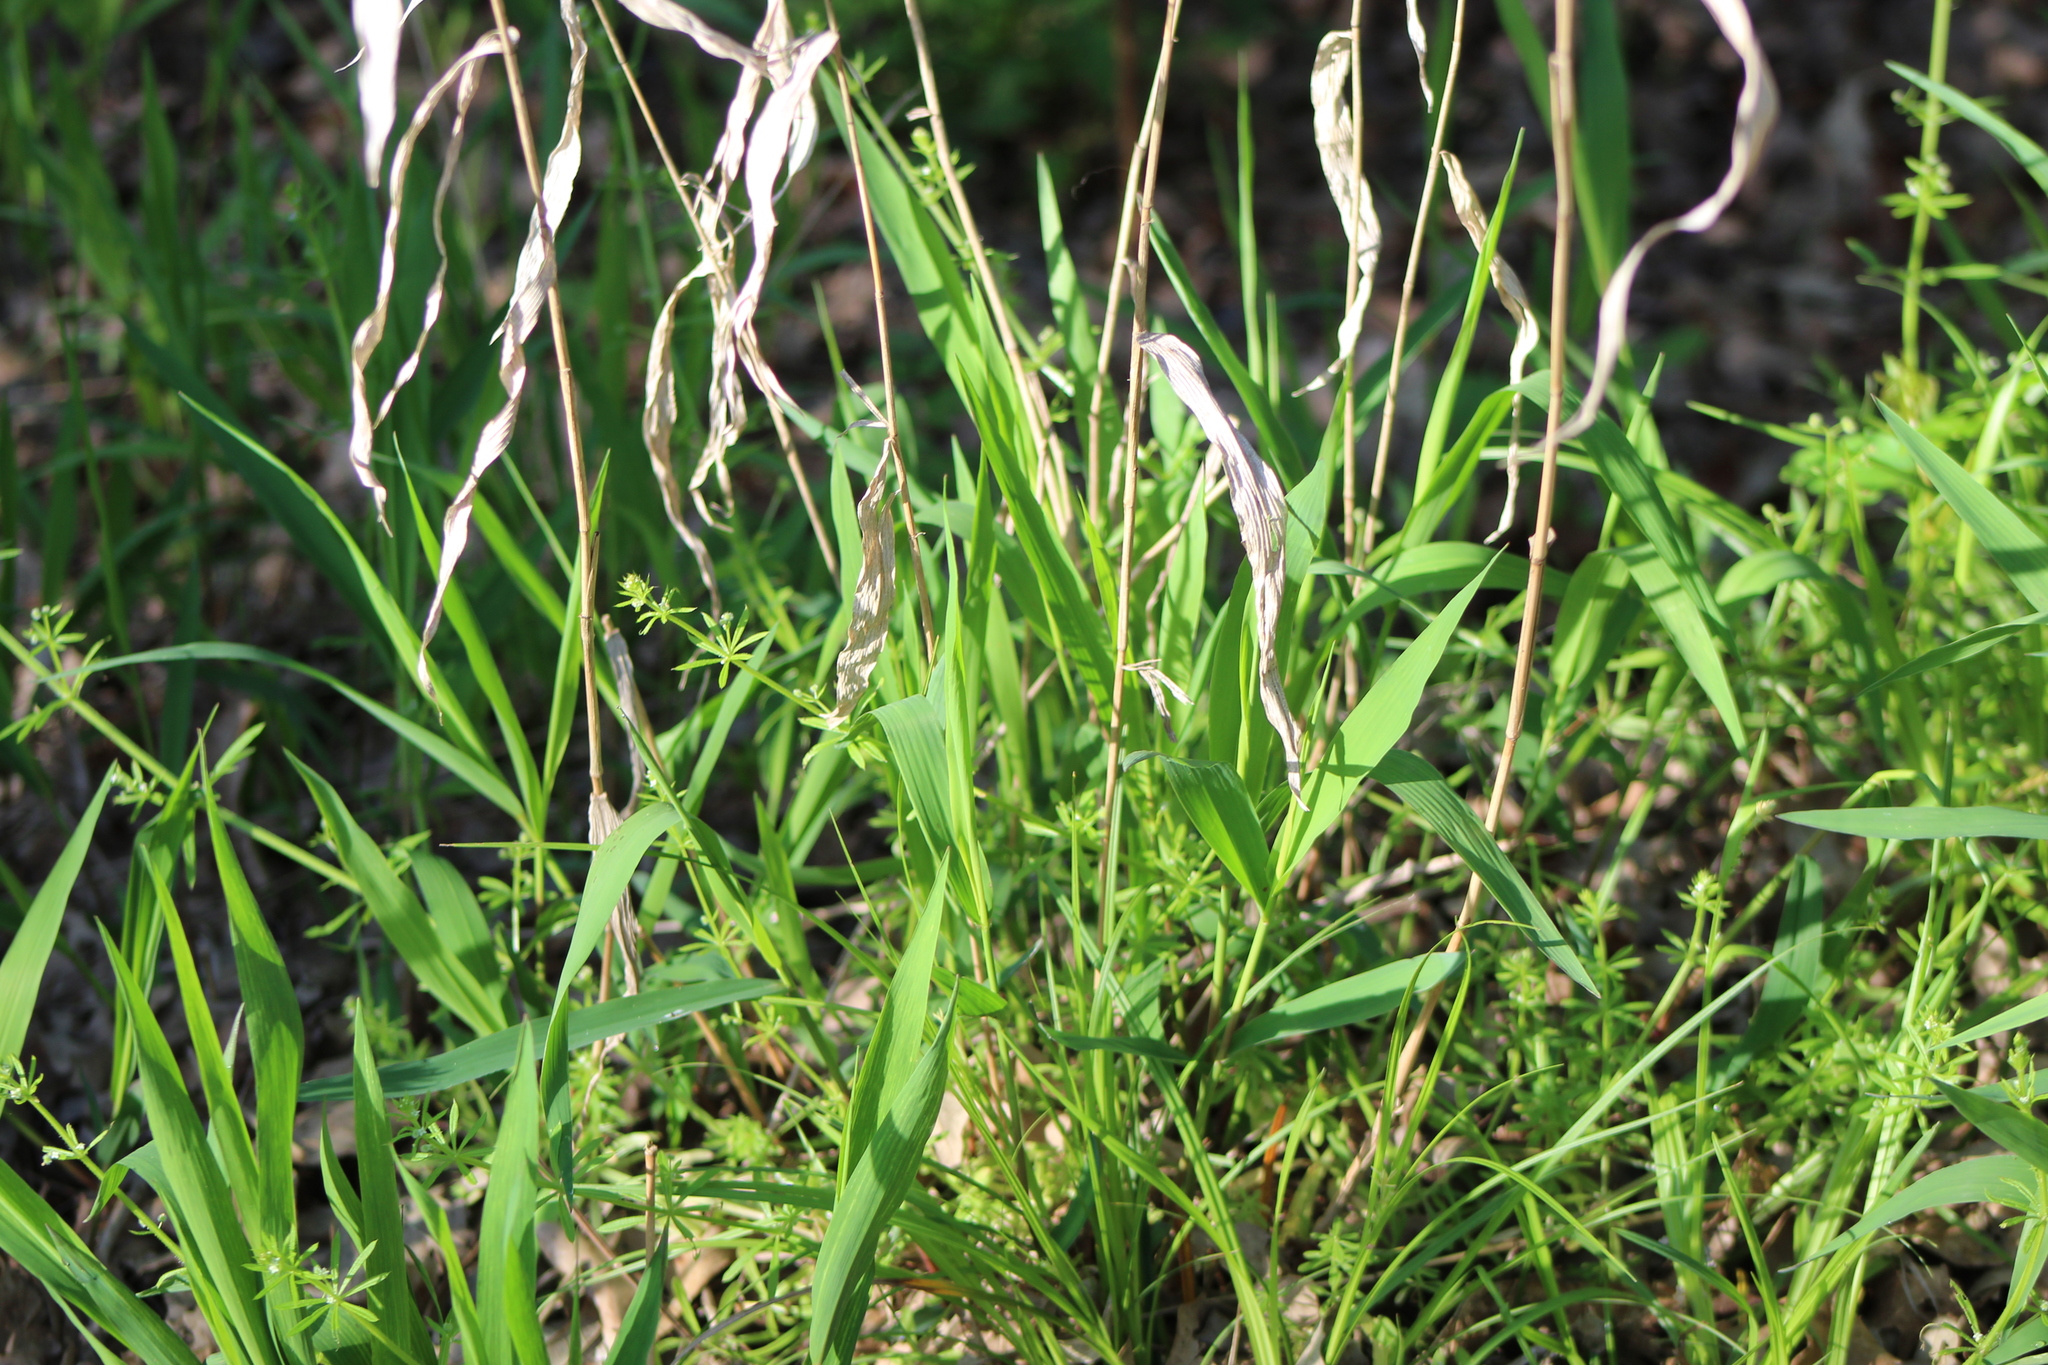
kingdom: Plantae
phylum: Tracheophyta
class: Liliopsida
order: Poales
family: Poaceae
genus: Chasmanthium
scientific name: Chasmanthium latifolium
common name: Broad-leaved chasmanthium
